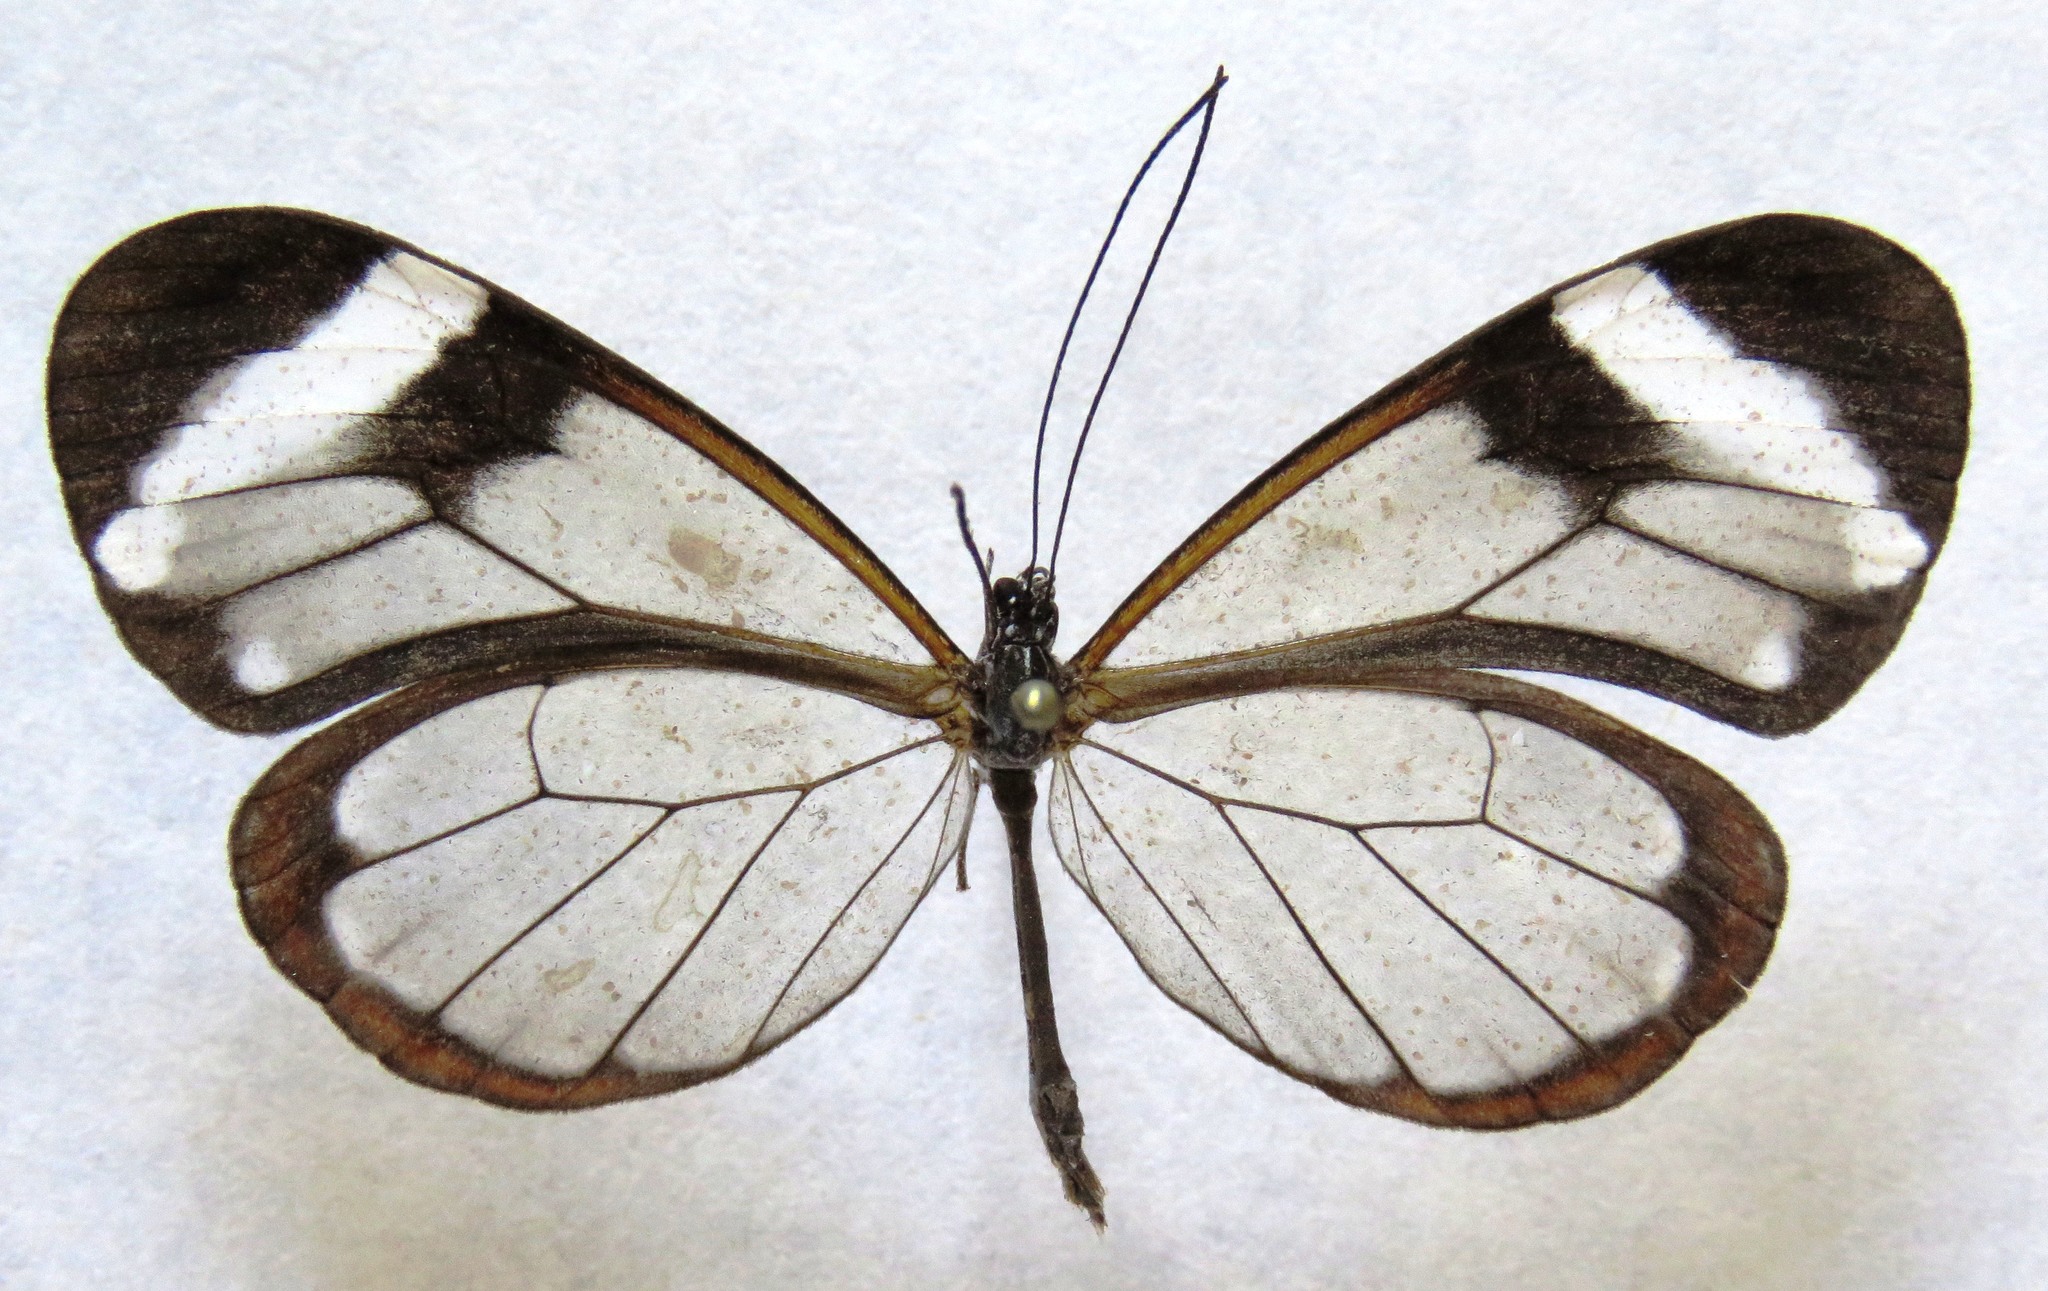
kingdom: Animalia
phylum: Arthropoda
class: Insecta
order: Lepidoptera
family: Nymphalidae
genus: Greta
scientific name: Greta morgane
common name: Thick-tipped greta
